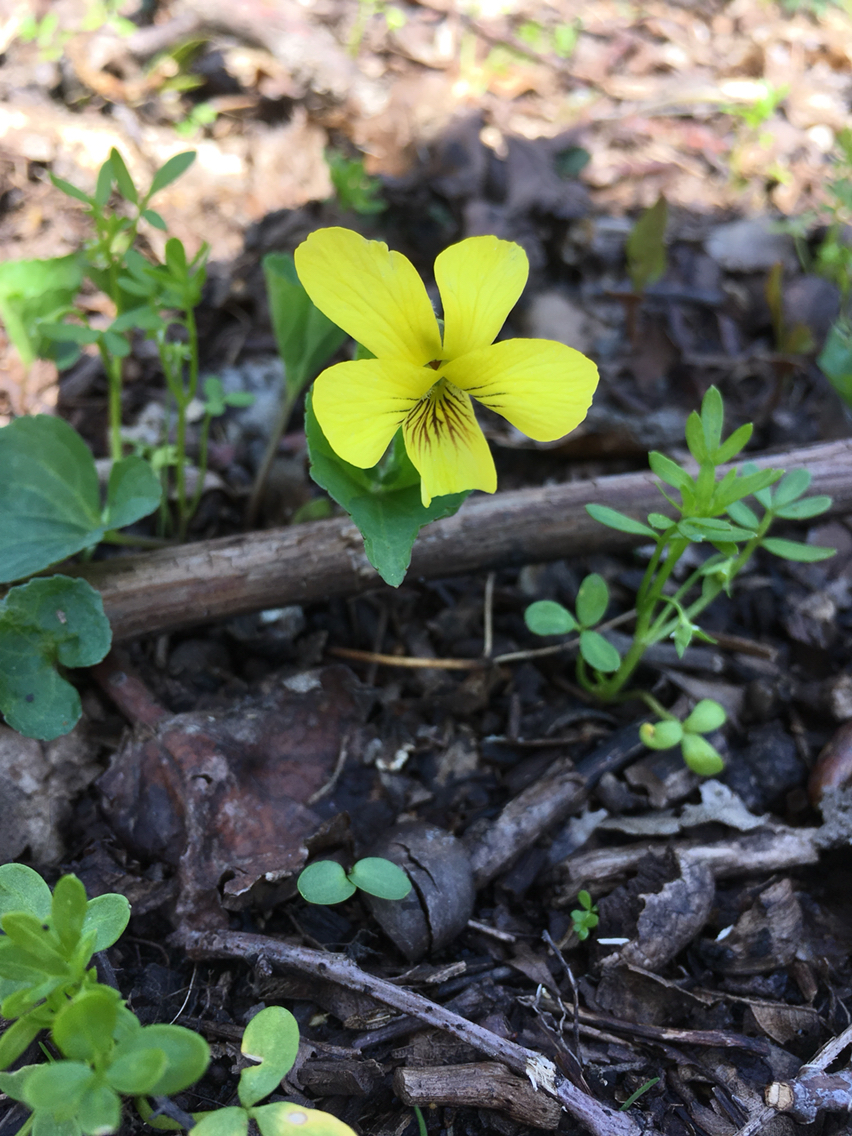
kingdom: Plantae
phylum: Tracheophyta
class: Magnoliopsida
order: Malpighiales
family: Violaceae
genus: Viola
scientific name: Viola eriocarpa
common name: Smooth yellow violet
